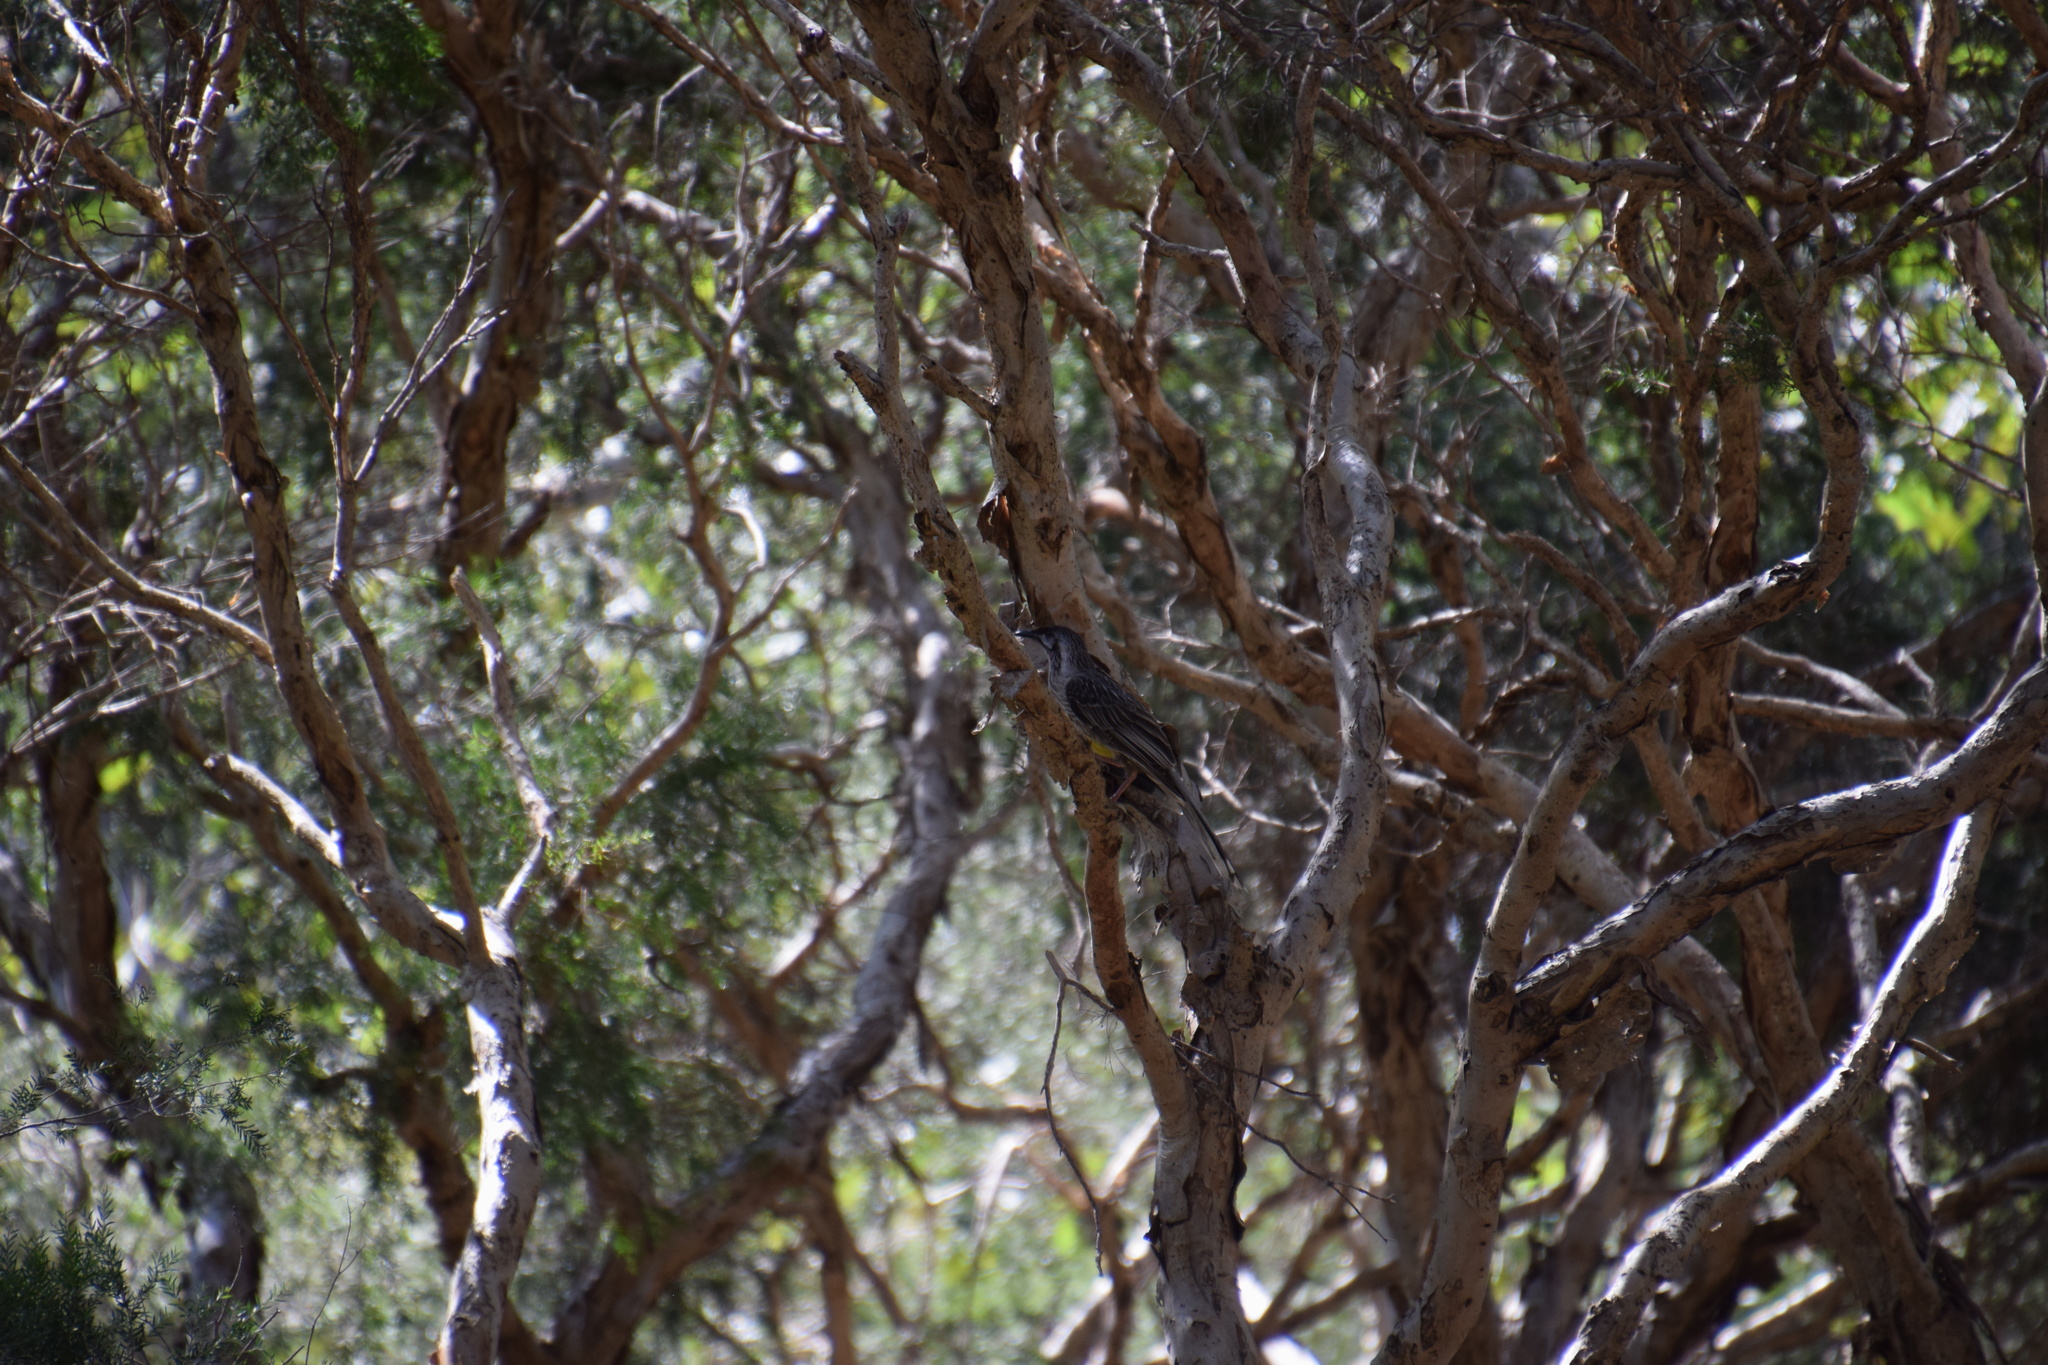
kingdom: Animalia
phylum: Chordata
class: Aves
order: Passeriformes
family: Meliphagidae
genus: Anthochaera
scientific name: Anthochaera carunculata
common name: Red wattlebird
